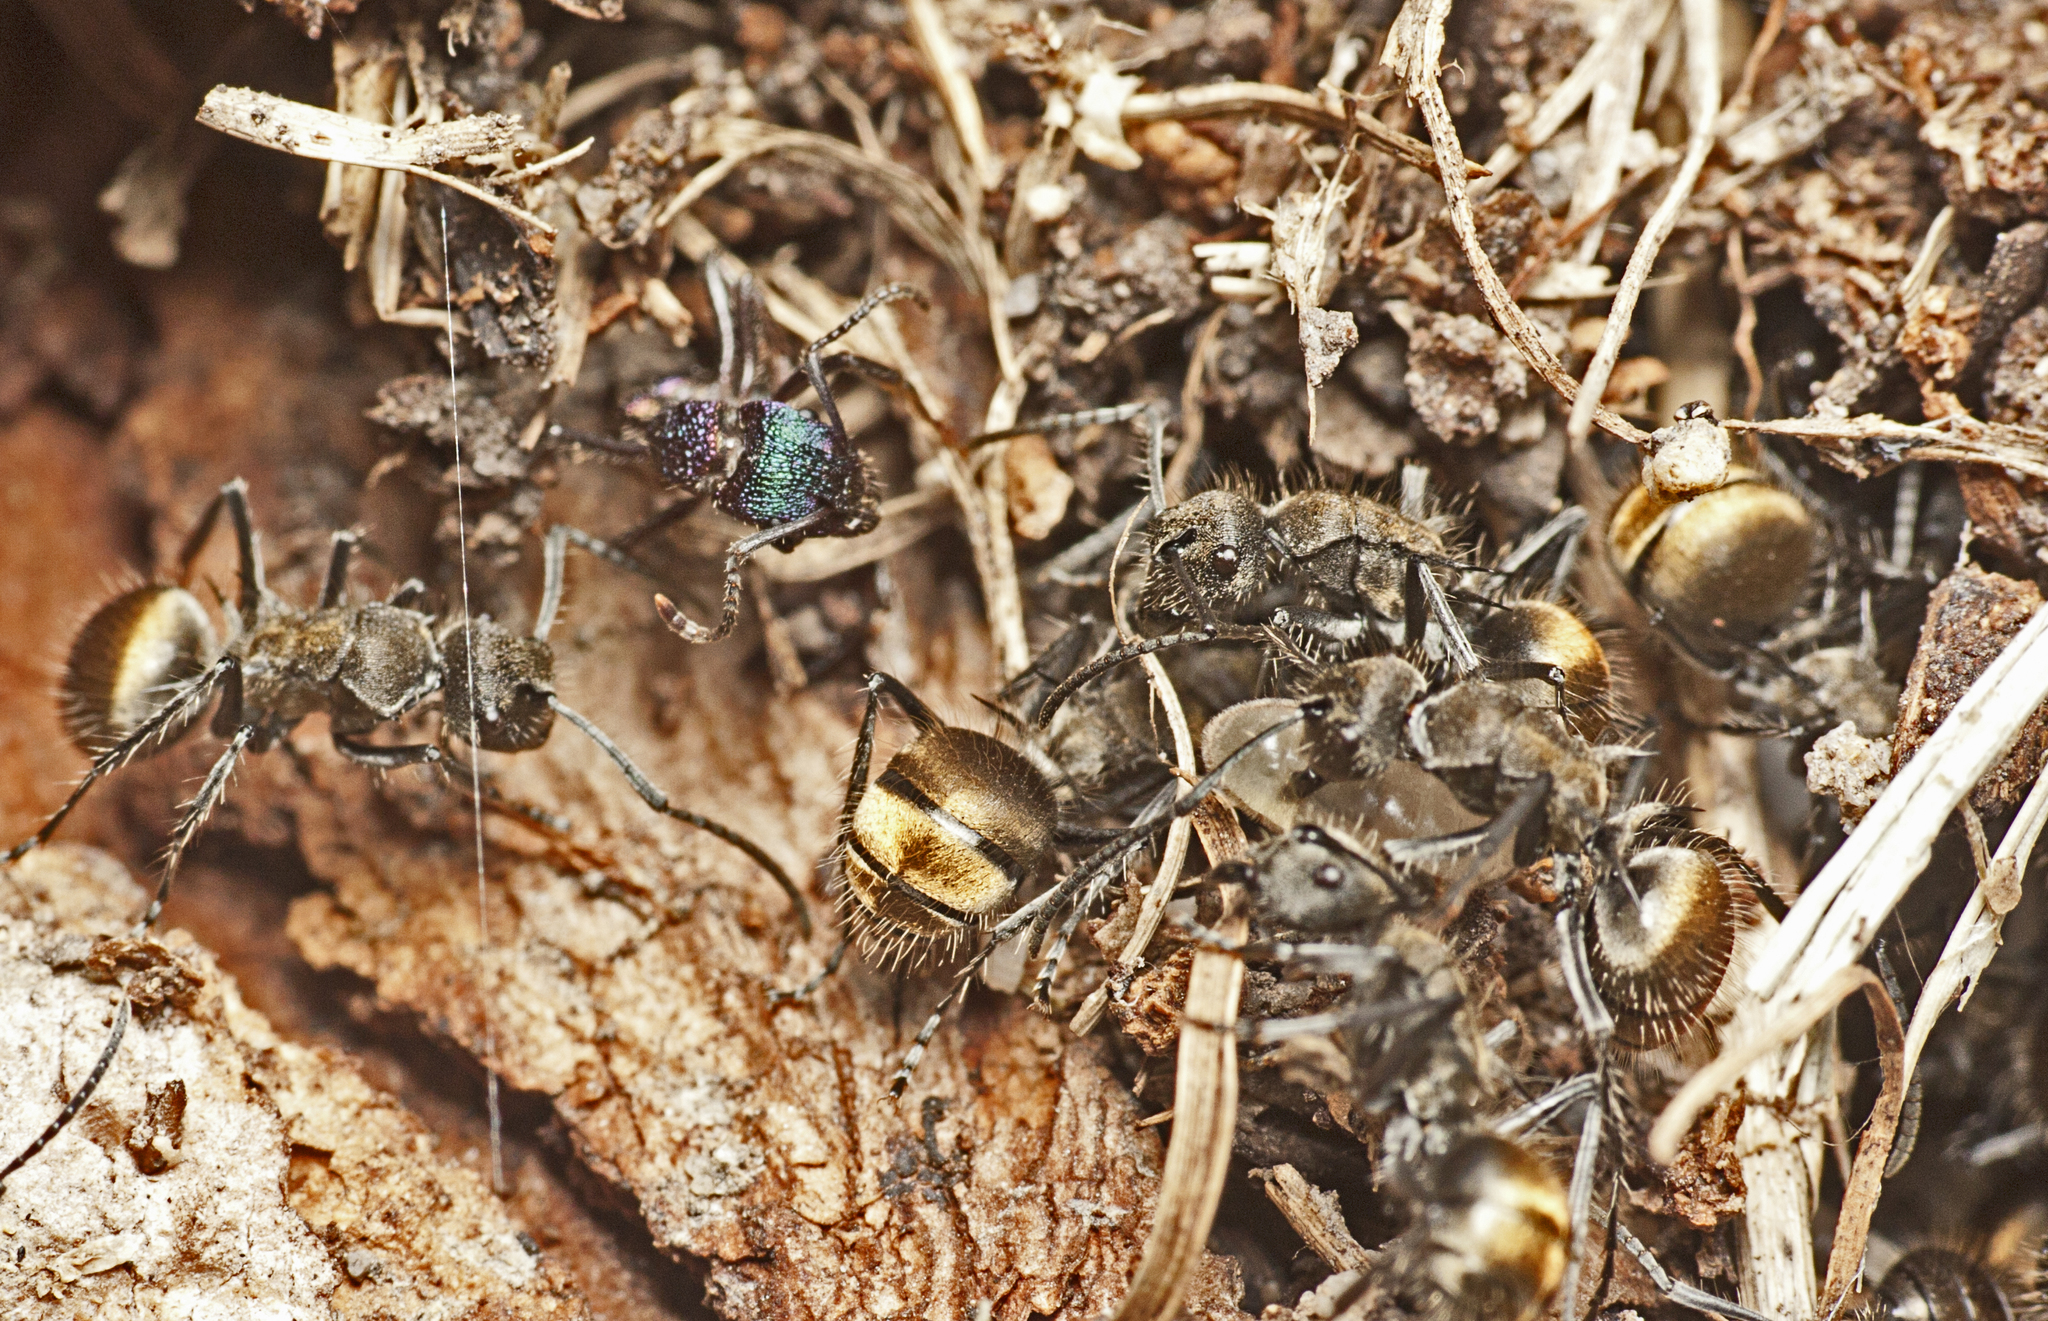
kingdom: Animalia
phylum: Arthropoda
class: Insecta
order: Hymenoptera
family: Formicidae
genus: Polyrhachis
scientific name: Polyrhachis aurea
